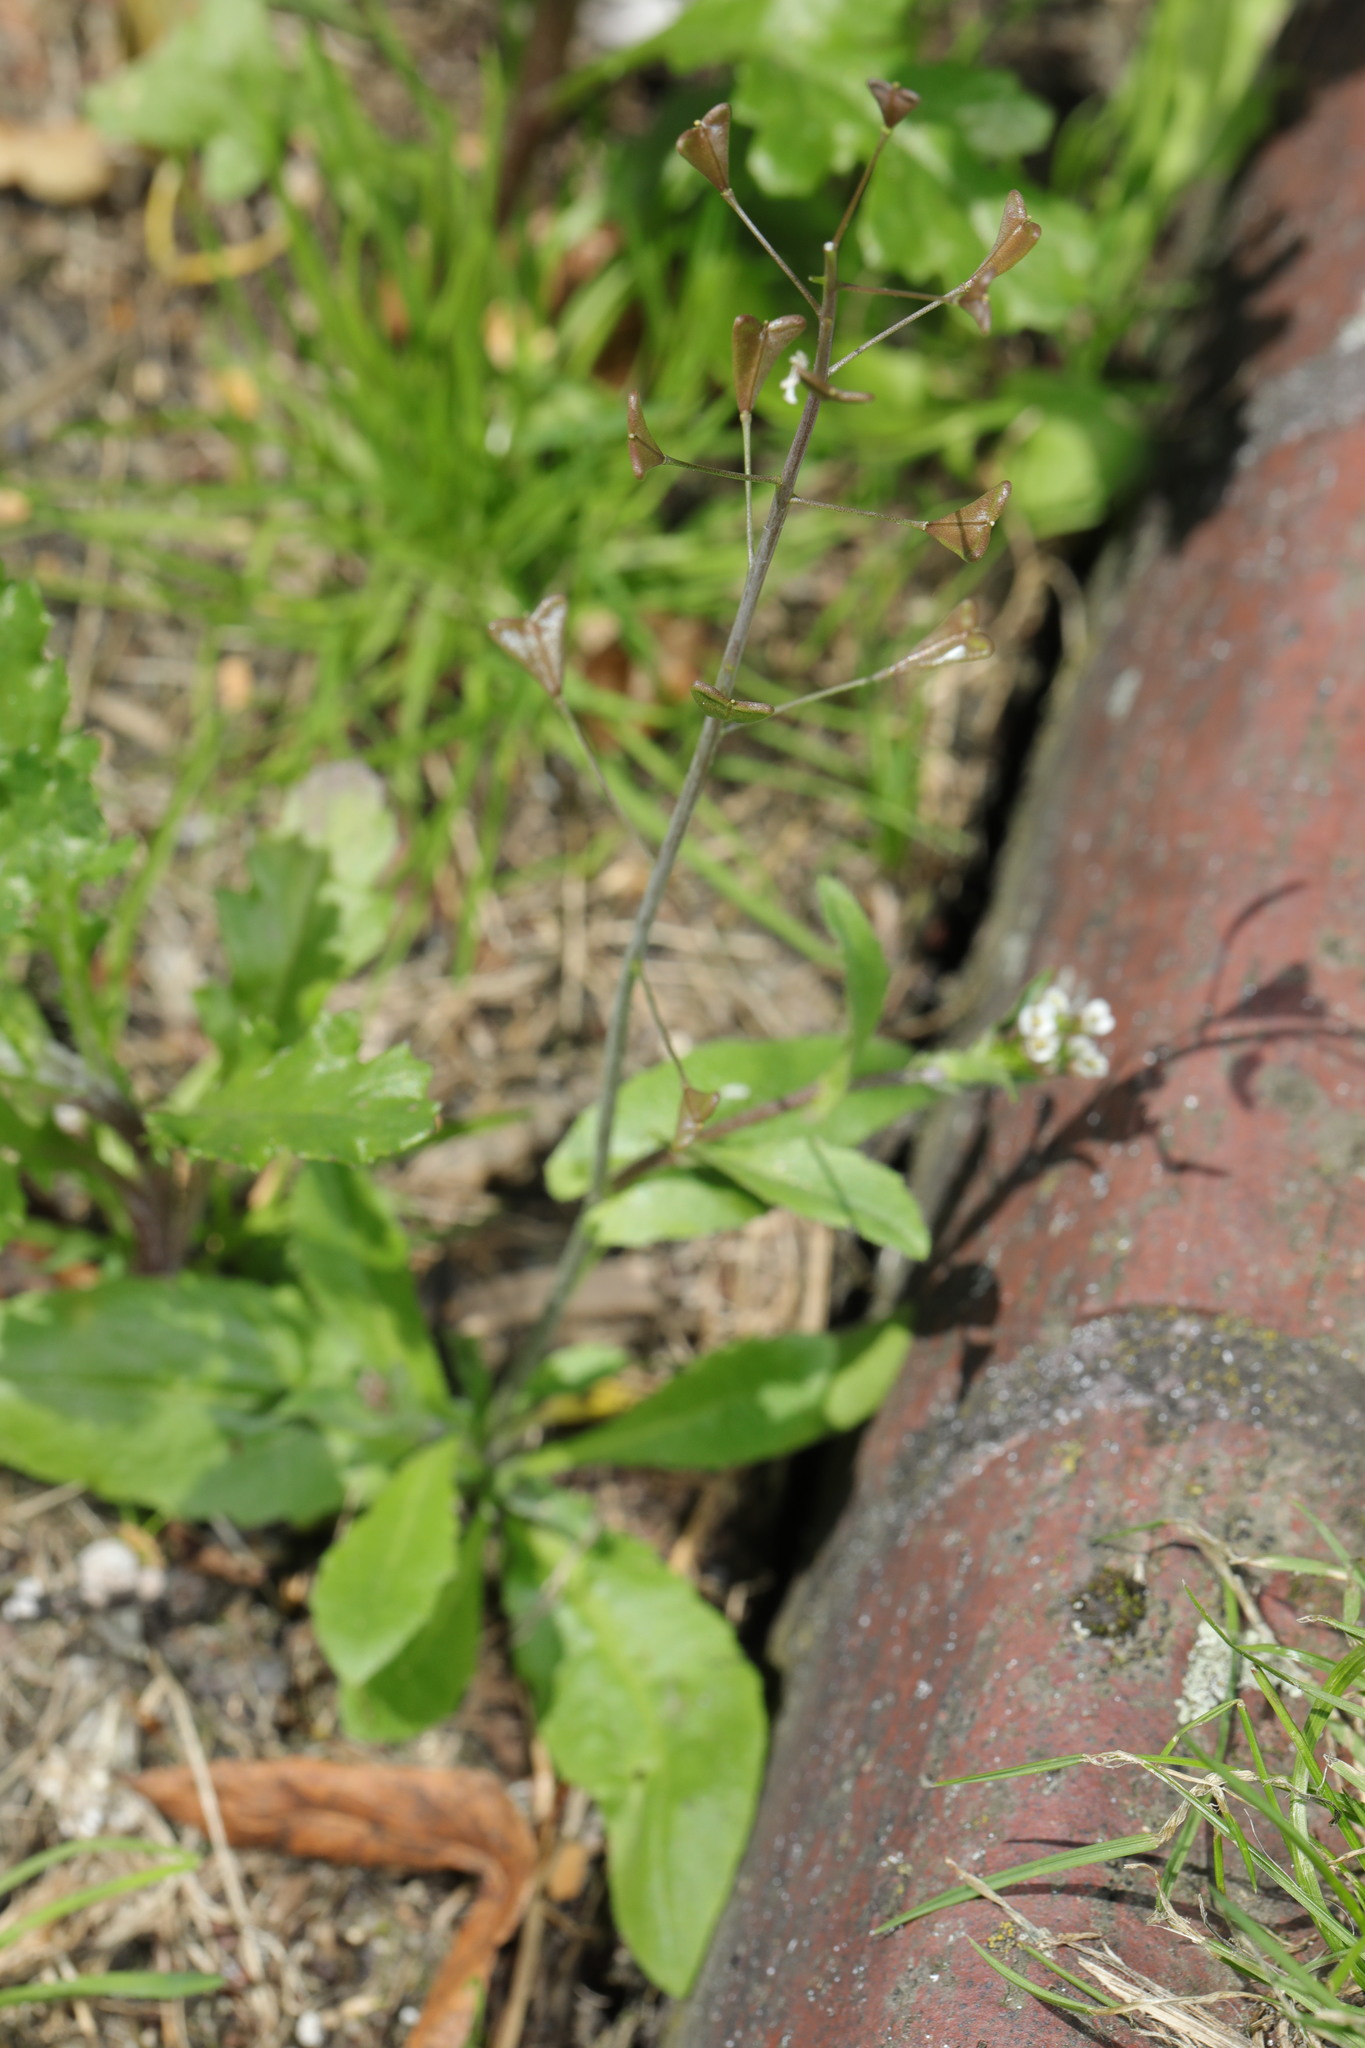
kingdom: Plantae
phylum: Tracheophyta
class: Magnoliopsida
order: Brassicales
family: Brassicaceae
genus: Capsella
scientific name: Capsella bursa-pastoris
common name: Shepherd's purse
